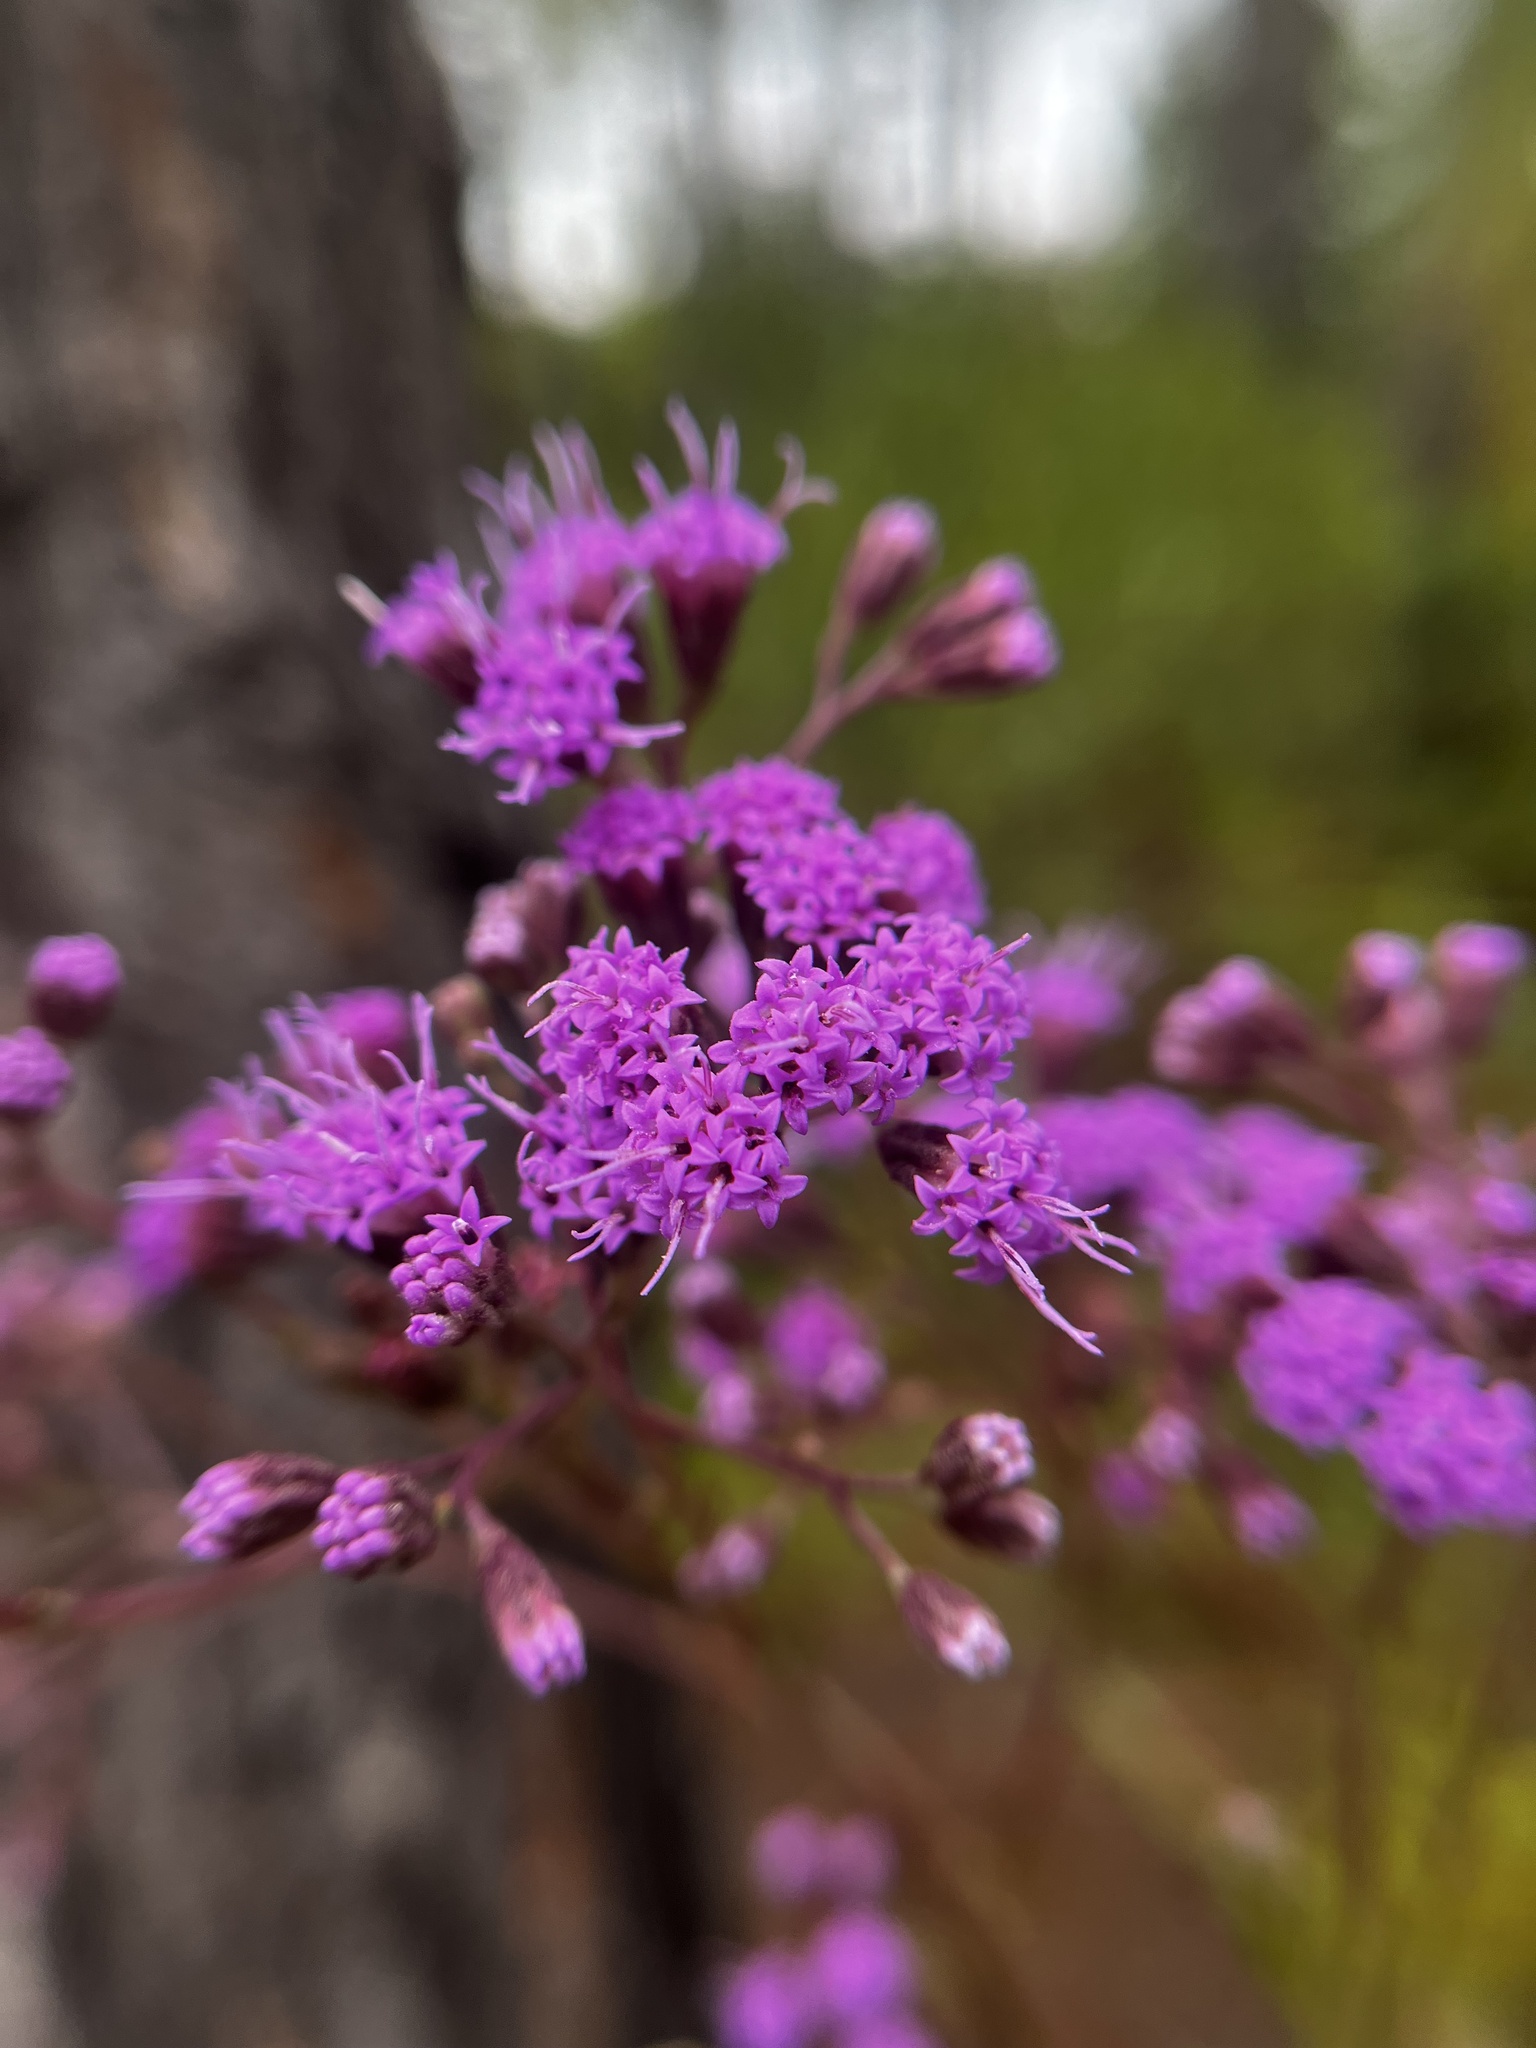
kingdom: Plantae
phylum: Tracheophyta
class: Magnoliopsida
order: Asterales
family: Asteraceae
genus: Carphephorus
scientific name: Carphephorus odoratissimus
